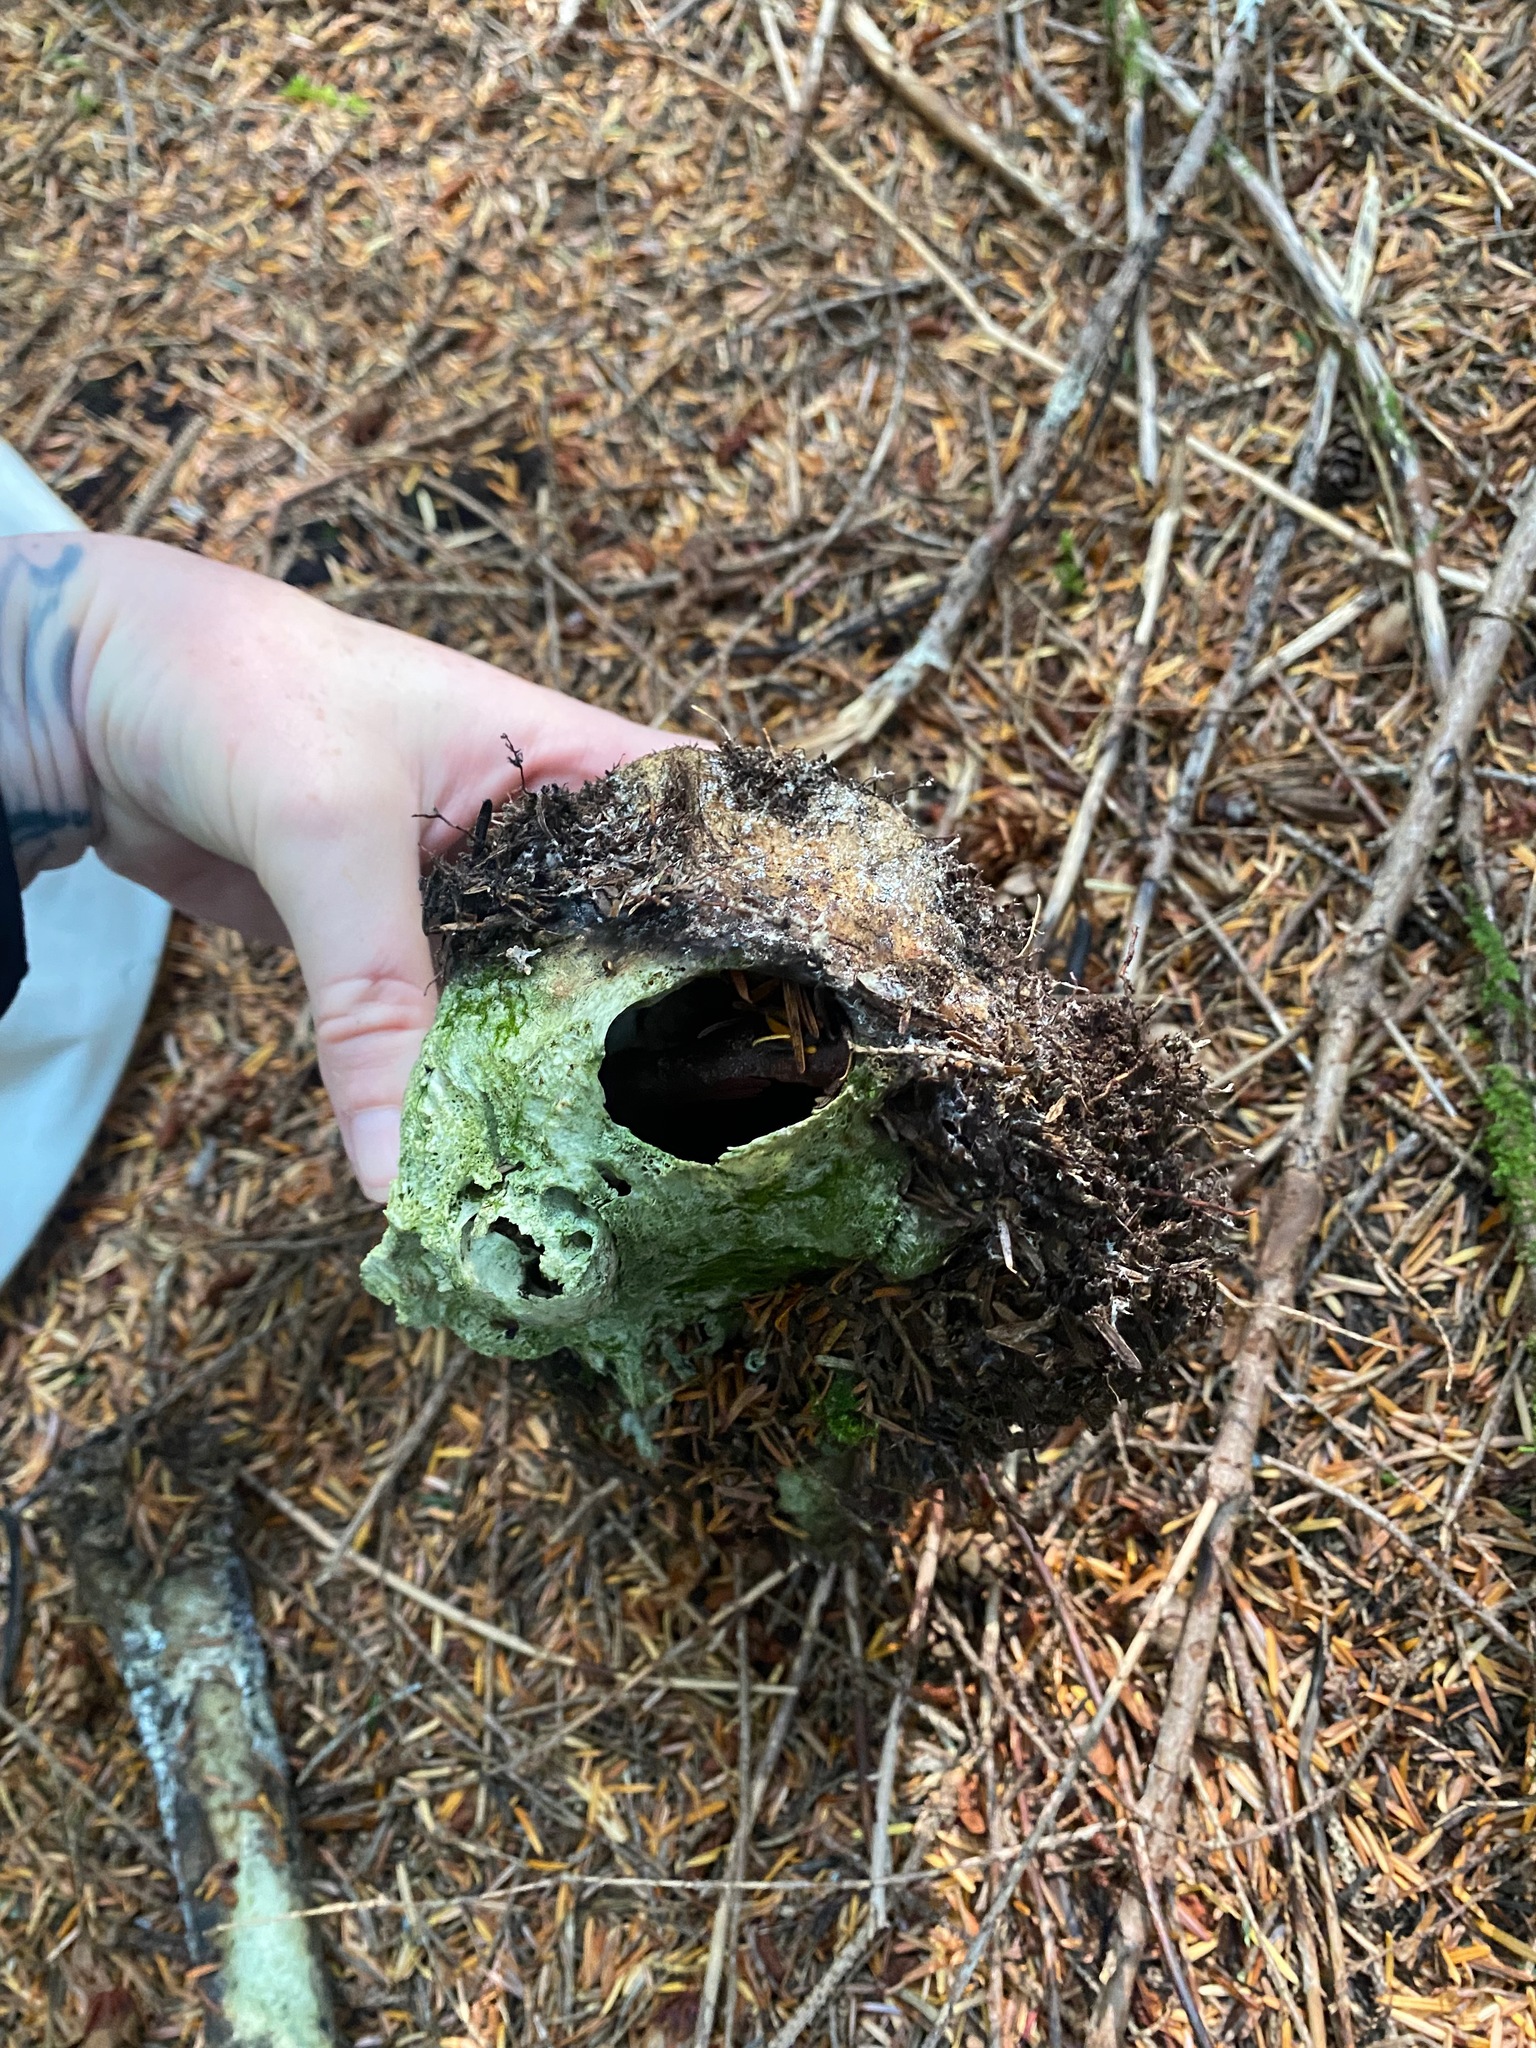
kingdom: Animalia
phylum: Chordata
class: Mammalia
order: Carnivora
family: Ursidae
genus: Ursus
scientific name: Ursus americanus
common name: American black bear
